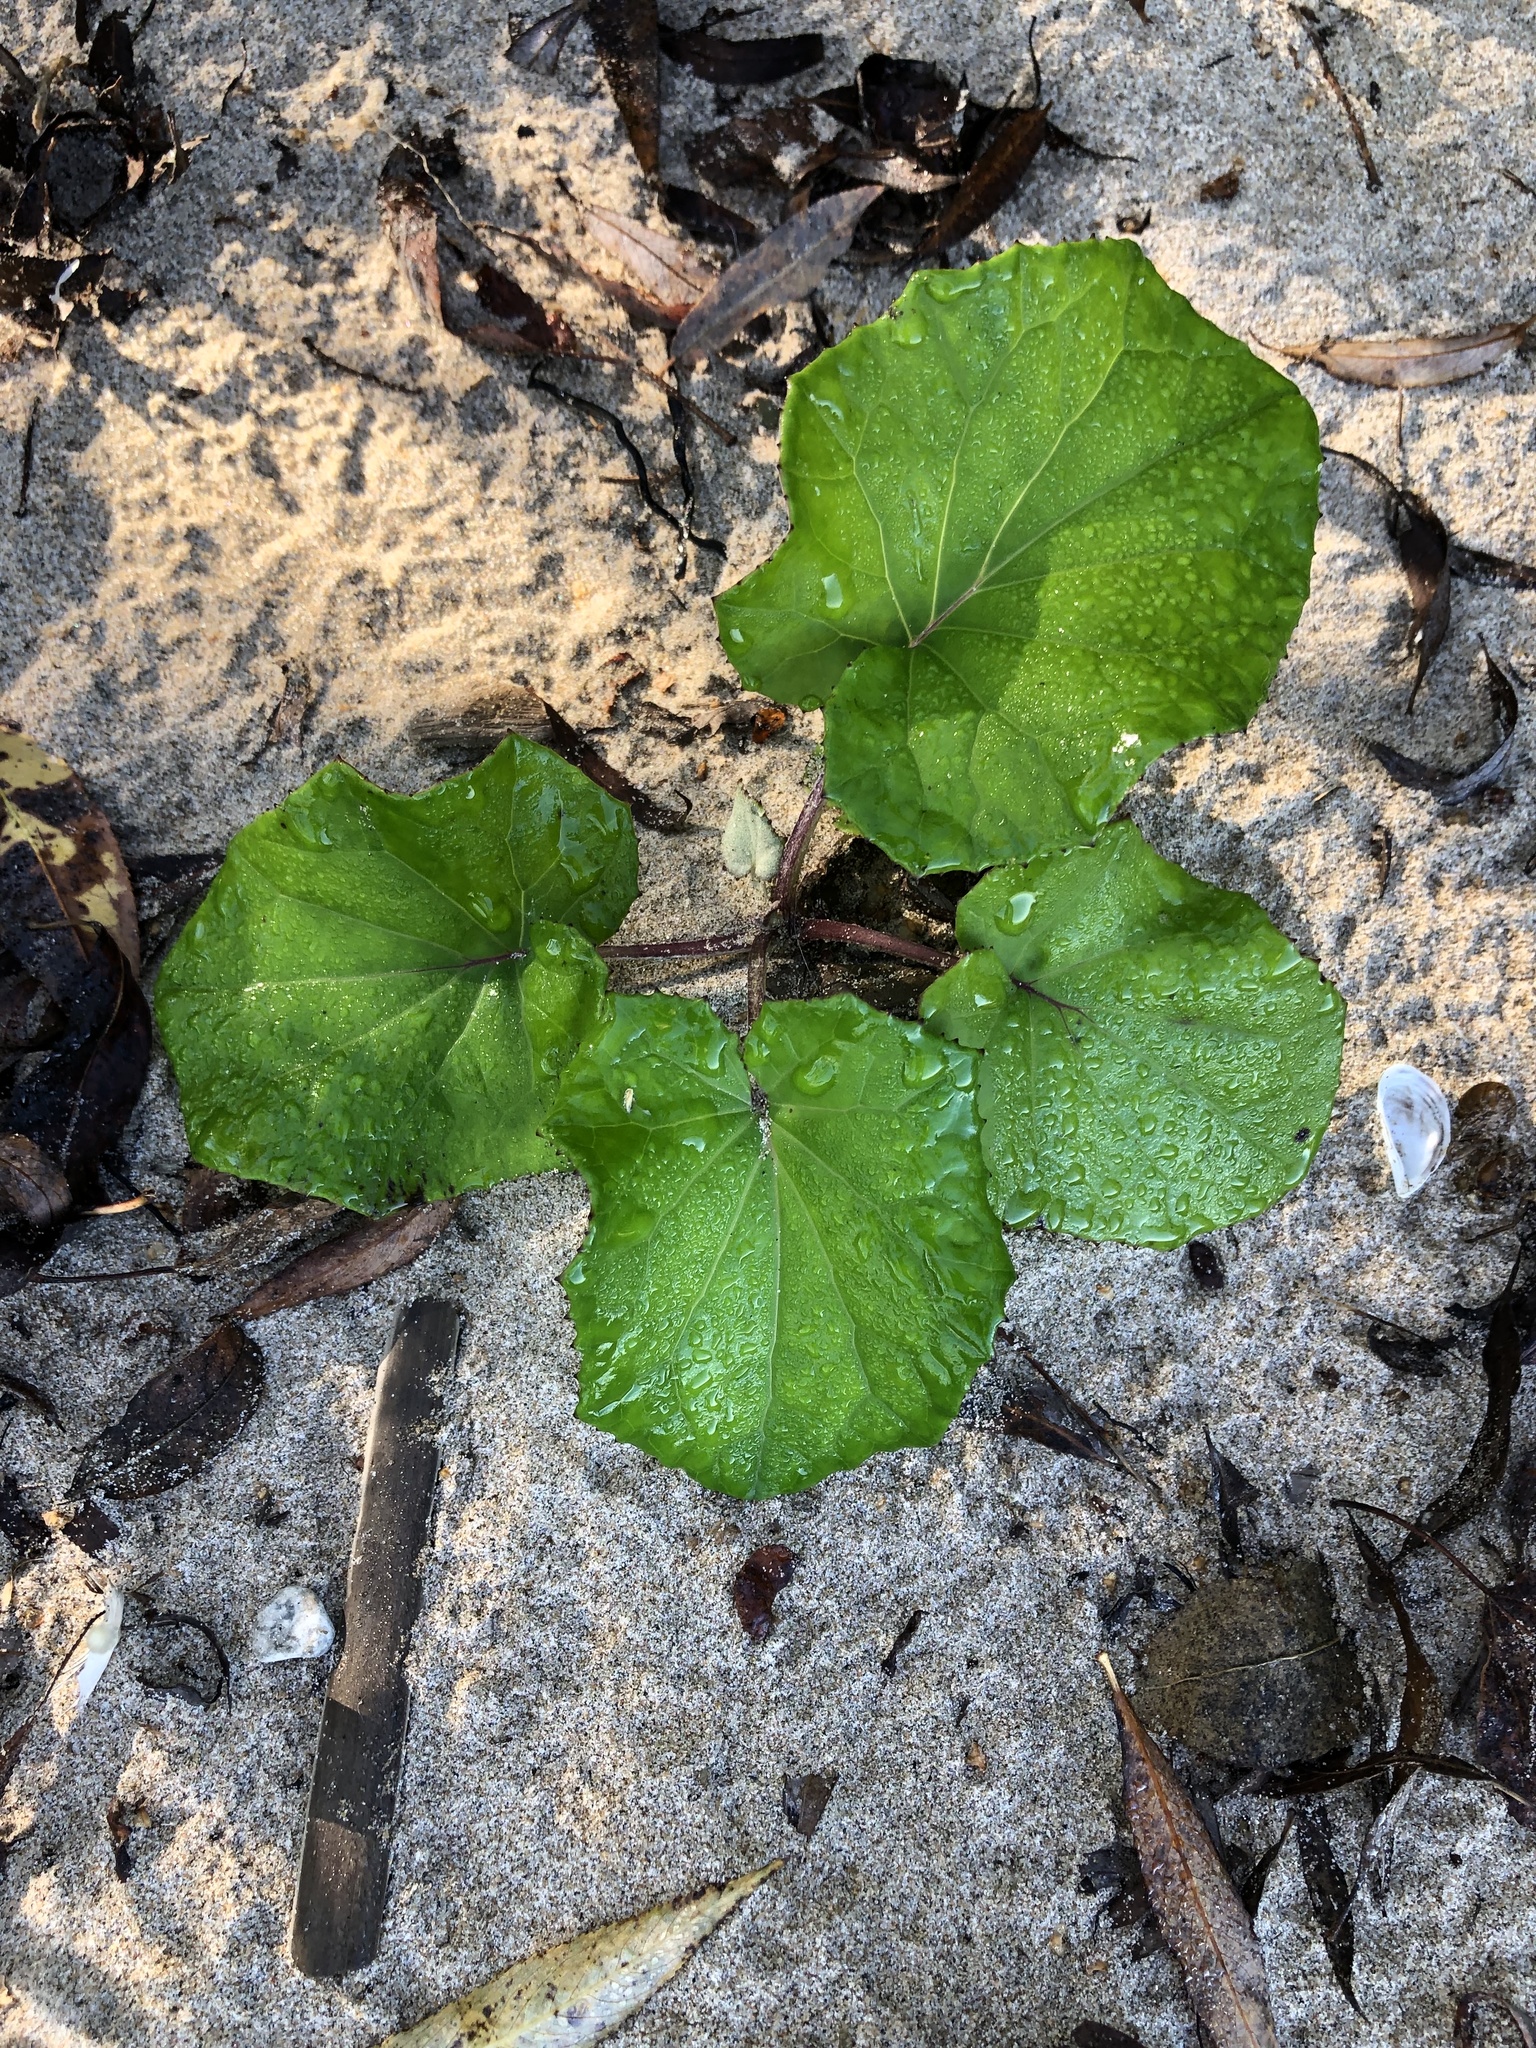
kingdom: Plantae
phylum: Tracheophyta
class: Magnoliopsida
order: Asterales
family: Asteraceae
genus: Tussilago
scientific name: Tussilago farfara
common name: Coltsfoot
